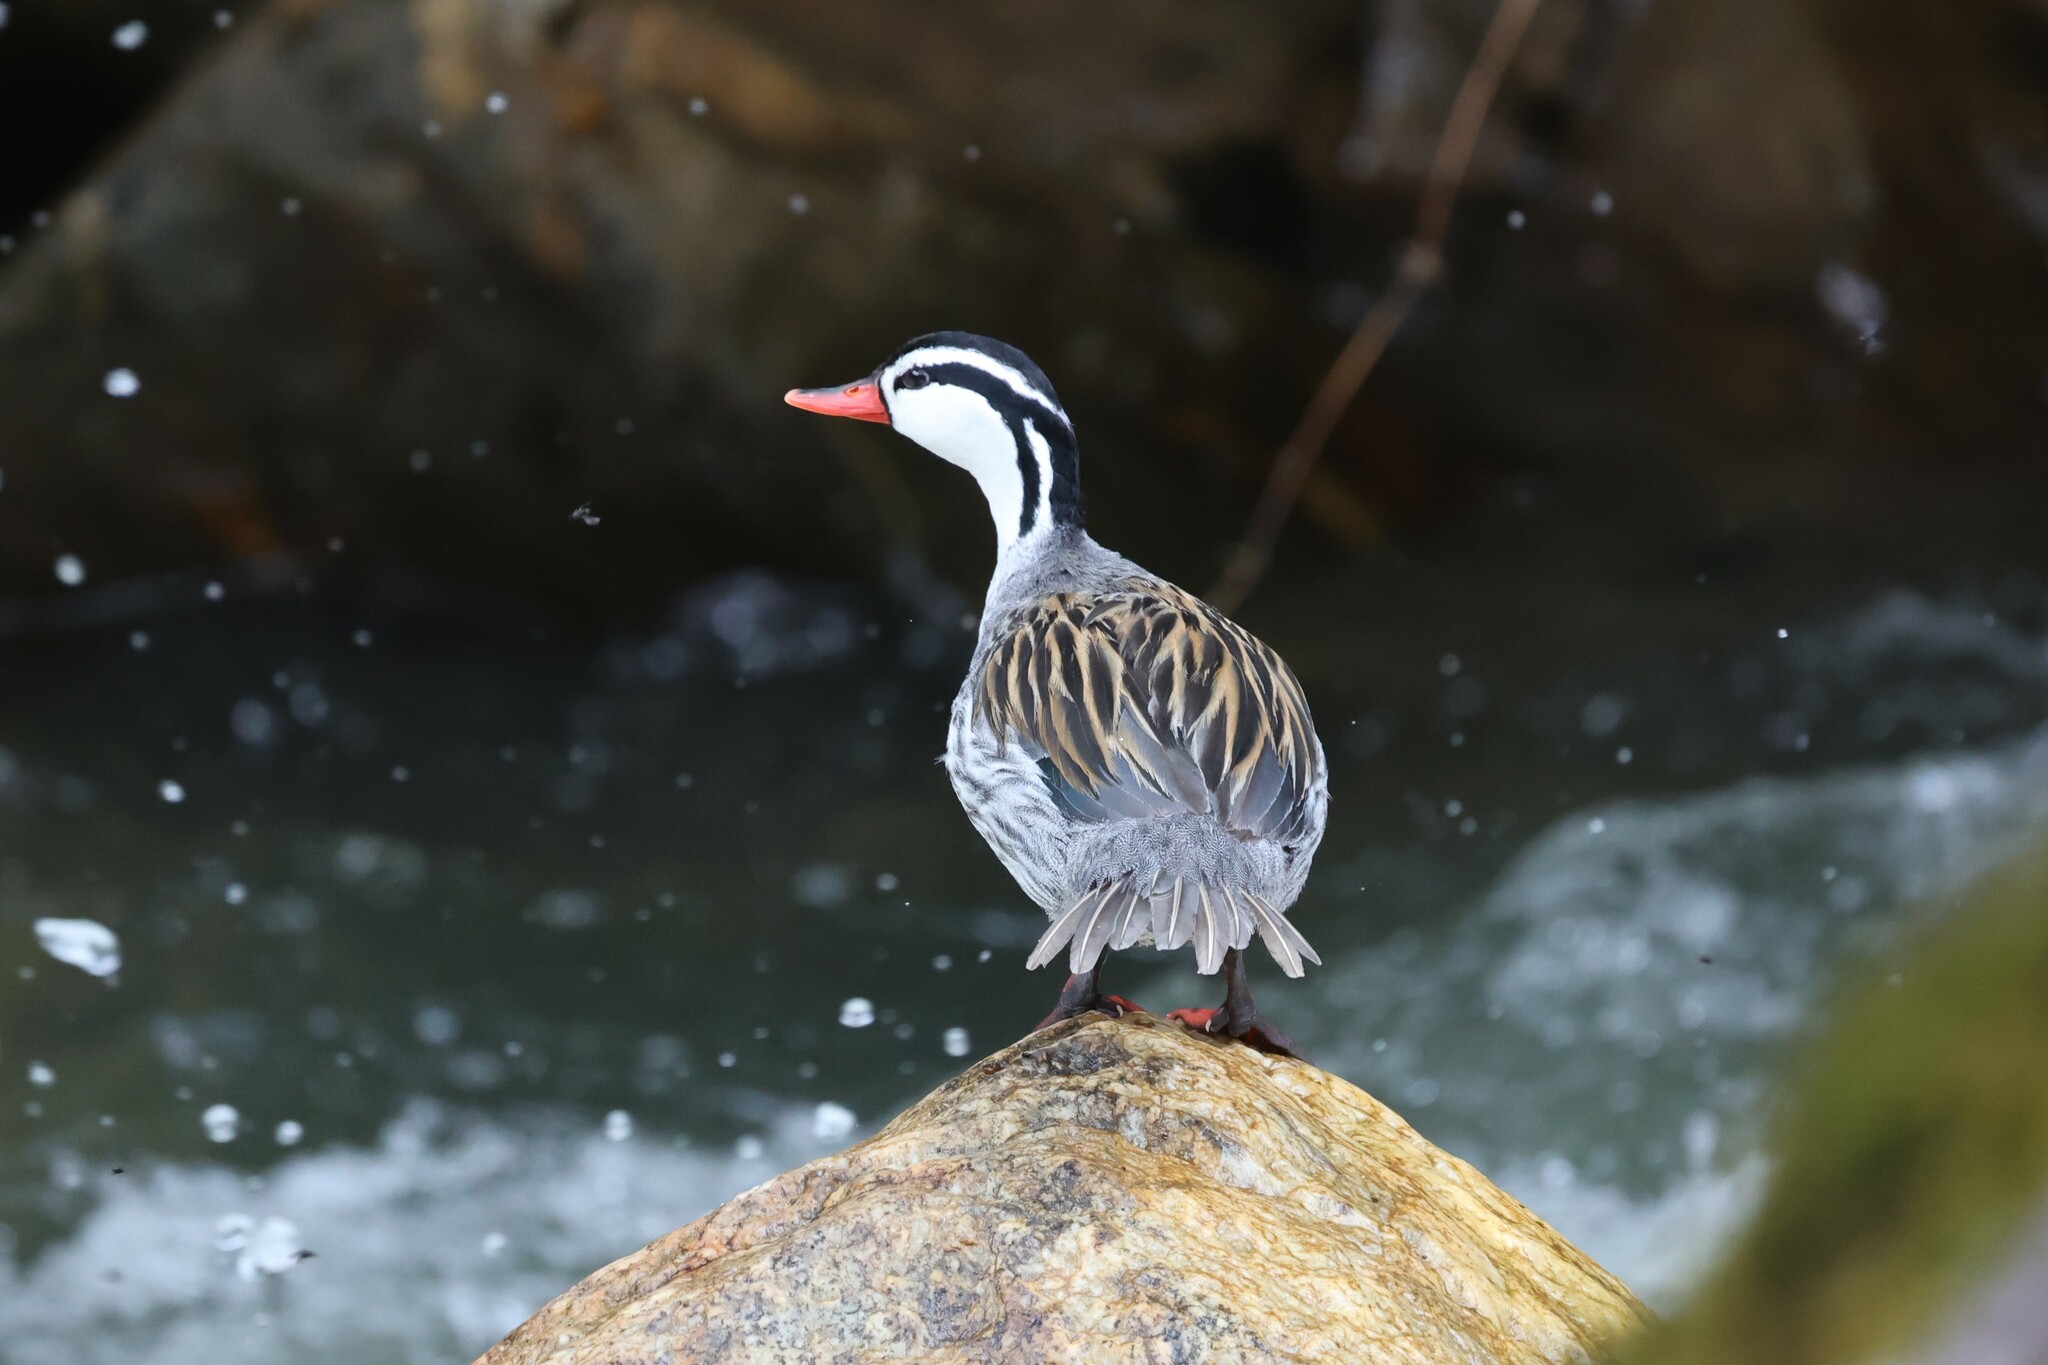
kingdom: Animalia
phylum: Chordata
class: Aves
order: Anseriformes
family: Anatidae
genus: Merganetta
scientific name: Merganetta armata
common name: Torrent duck
